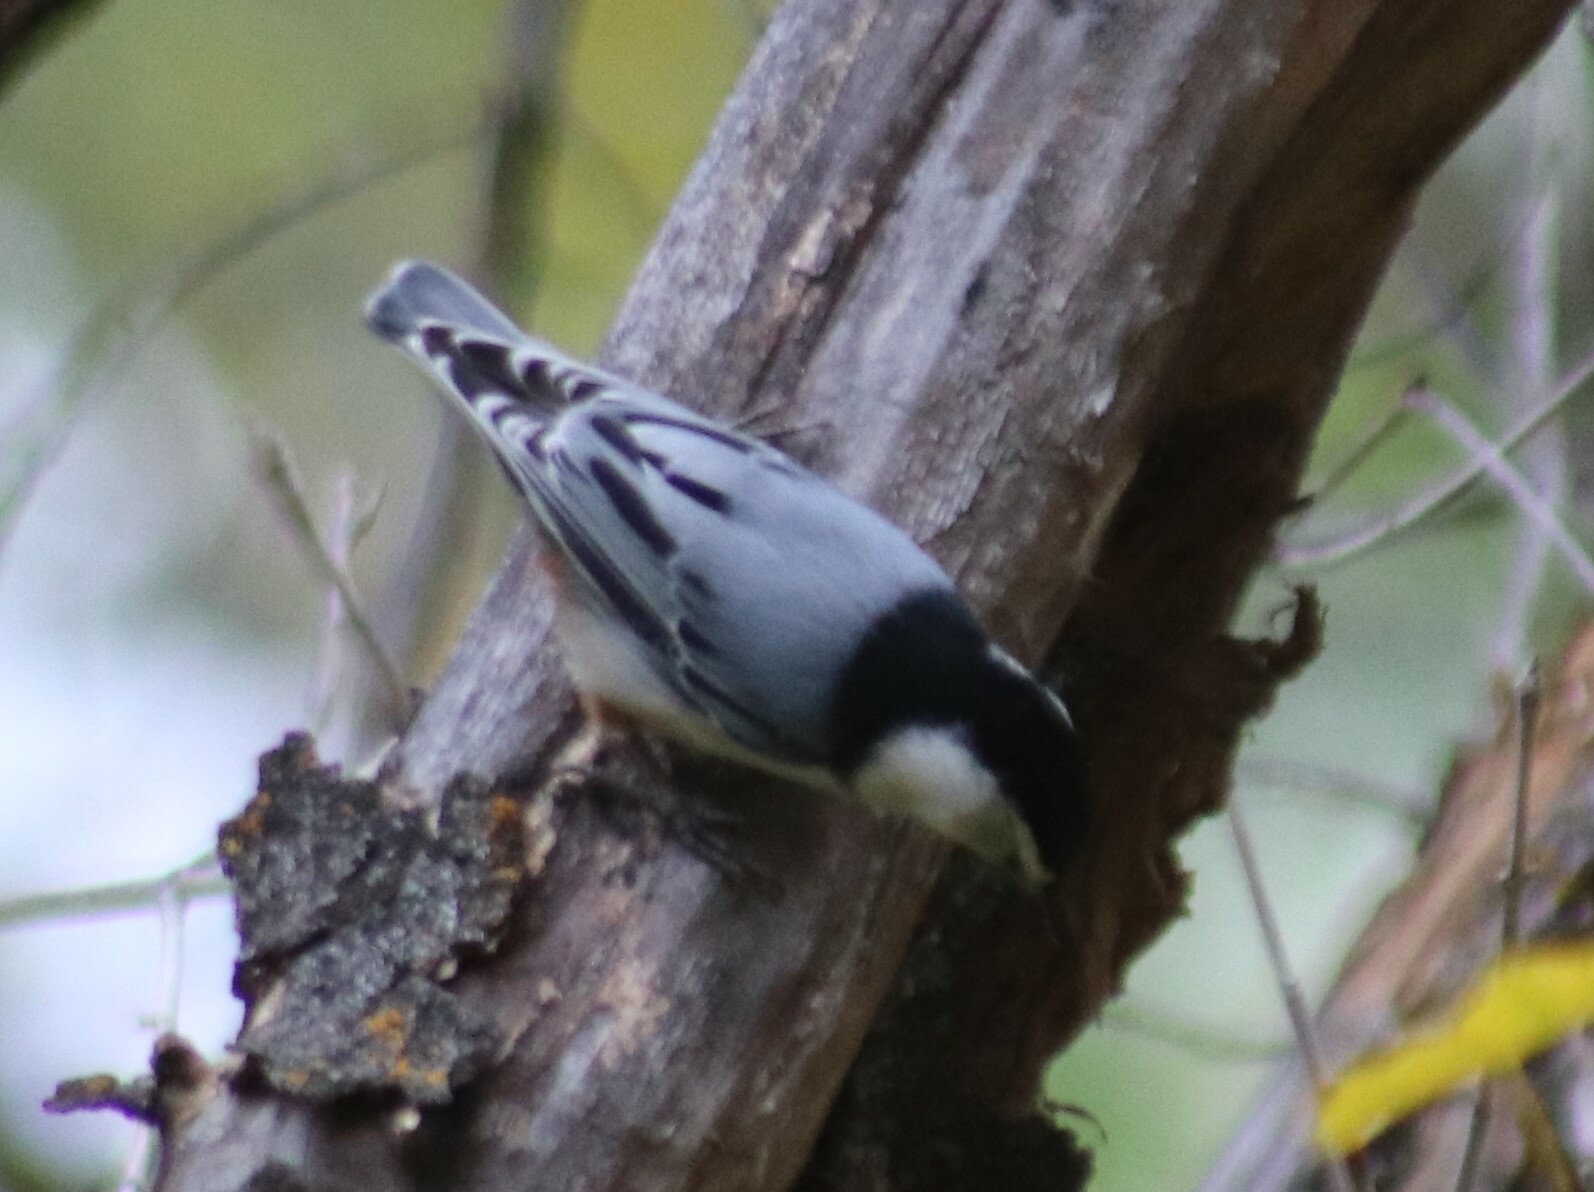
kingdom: Animalia
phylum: Chordata
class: Aves
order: Passeriformes
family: Sittidae
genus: Sitta
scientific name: Sitta carolinensis
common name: White-breasted nuthatch
